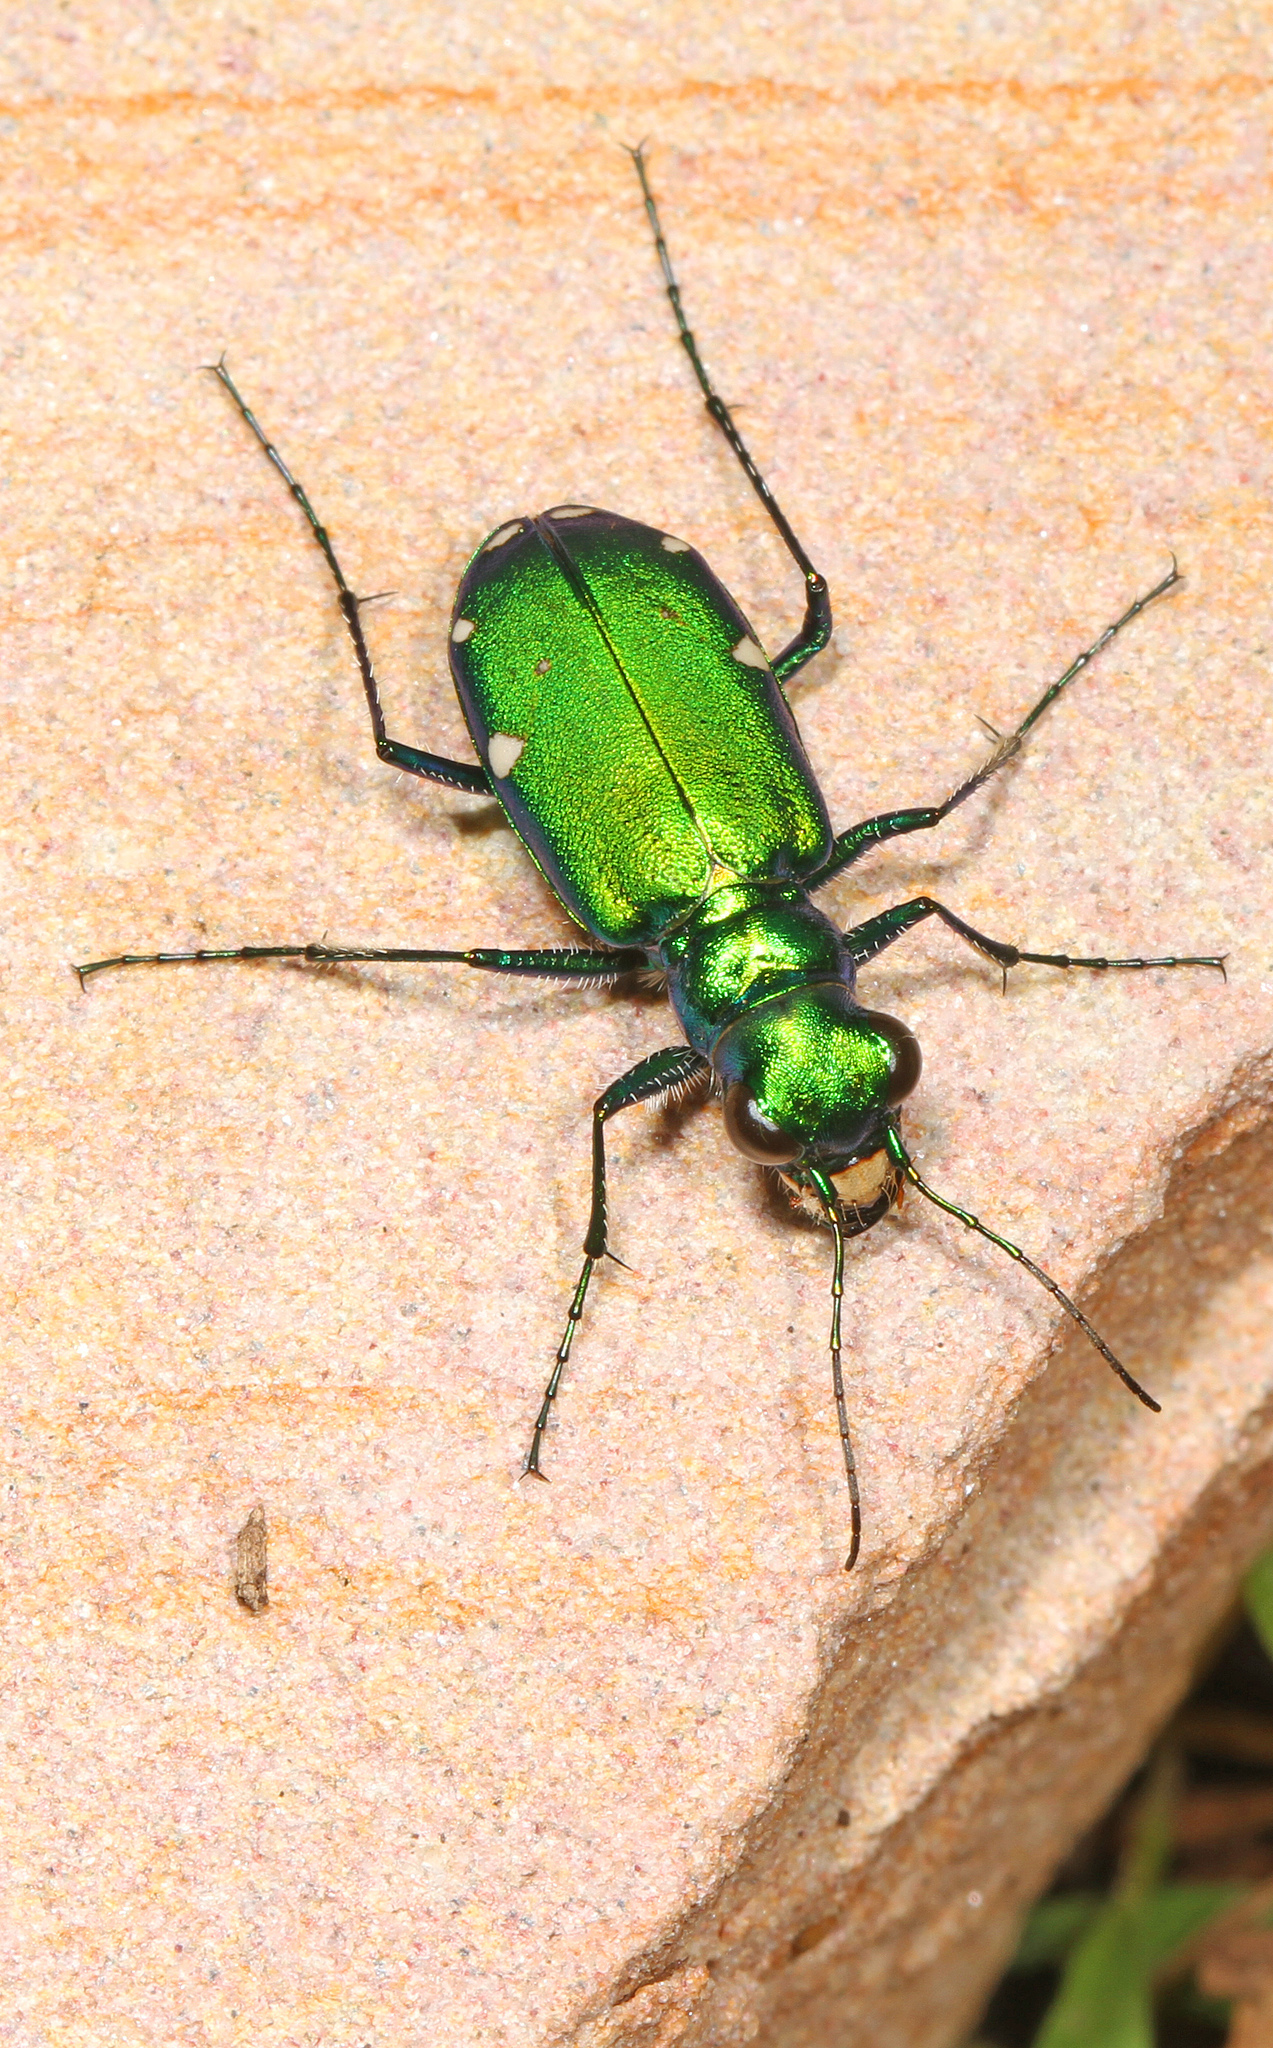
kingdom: Animalia
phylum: Arthropoda
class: Insecta
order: Coleoptera
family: Carabidae
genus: Cicindela
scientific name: Cicindela sexguttata
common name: Six-spotted tiger beetle
